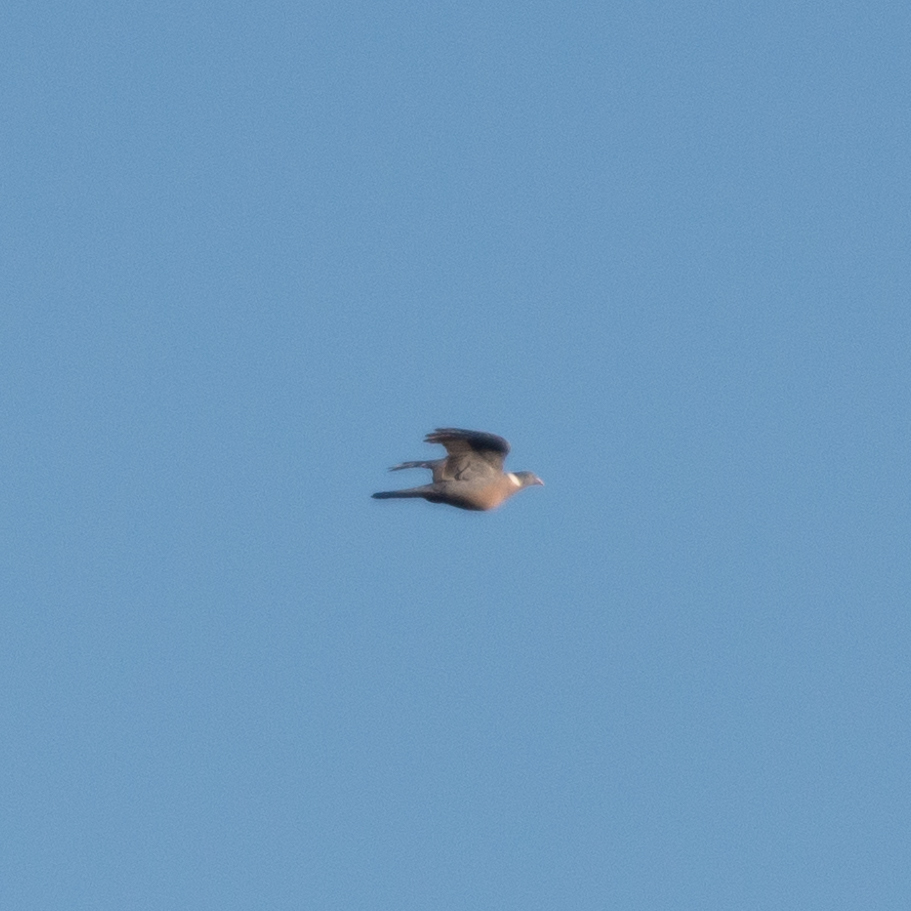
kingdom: Animalia
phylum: Chordata
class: Aves
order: Columbiformes
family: Columbidae
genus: Columba
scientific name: Columba palumbus
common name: Common wood pigeon
